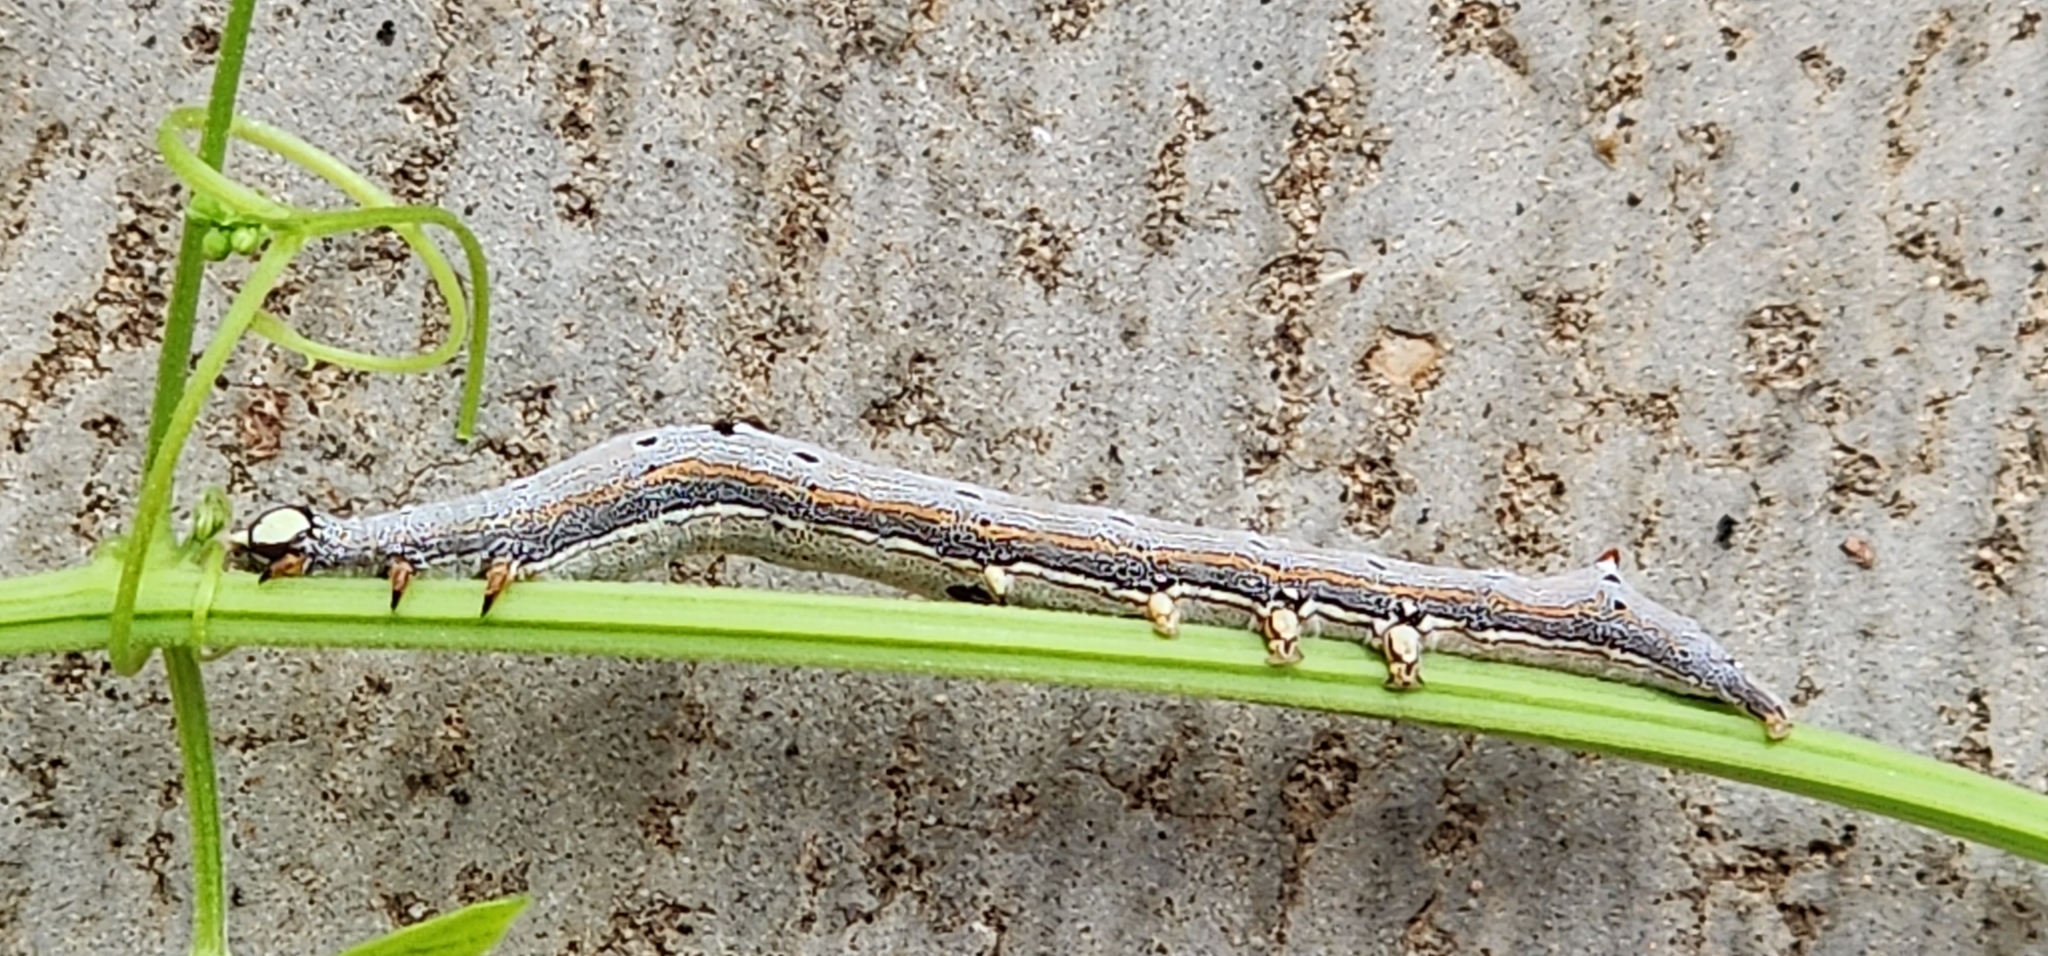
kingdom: Animalia
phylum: Arthropoda
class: Insecta
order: Lepidoptera
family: Erebidae
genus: Achaea
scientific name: Achaea janata
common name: Croton caterpillar
